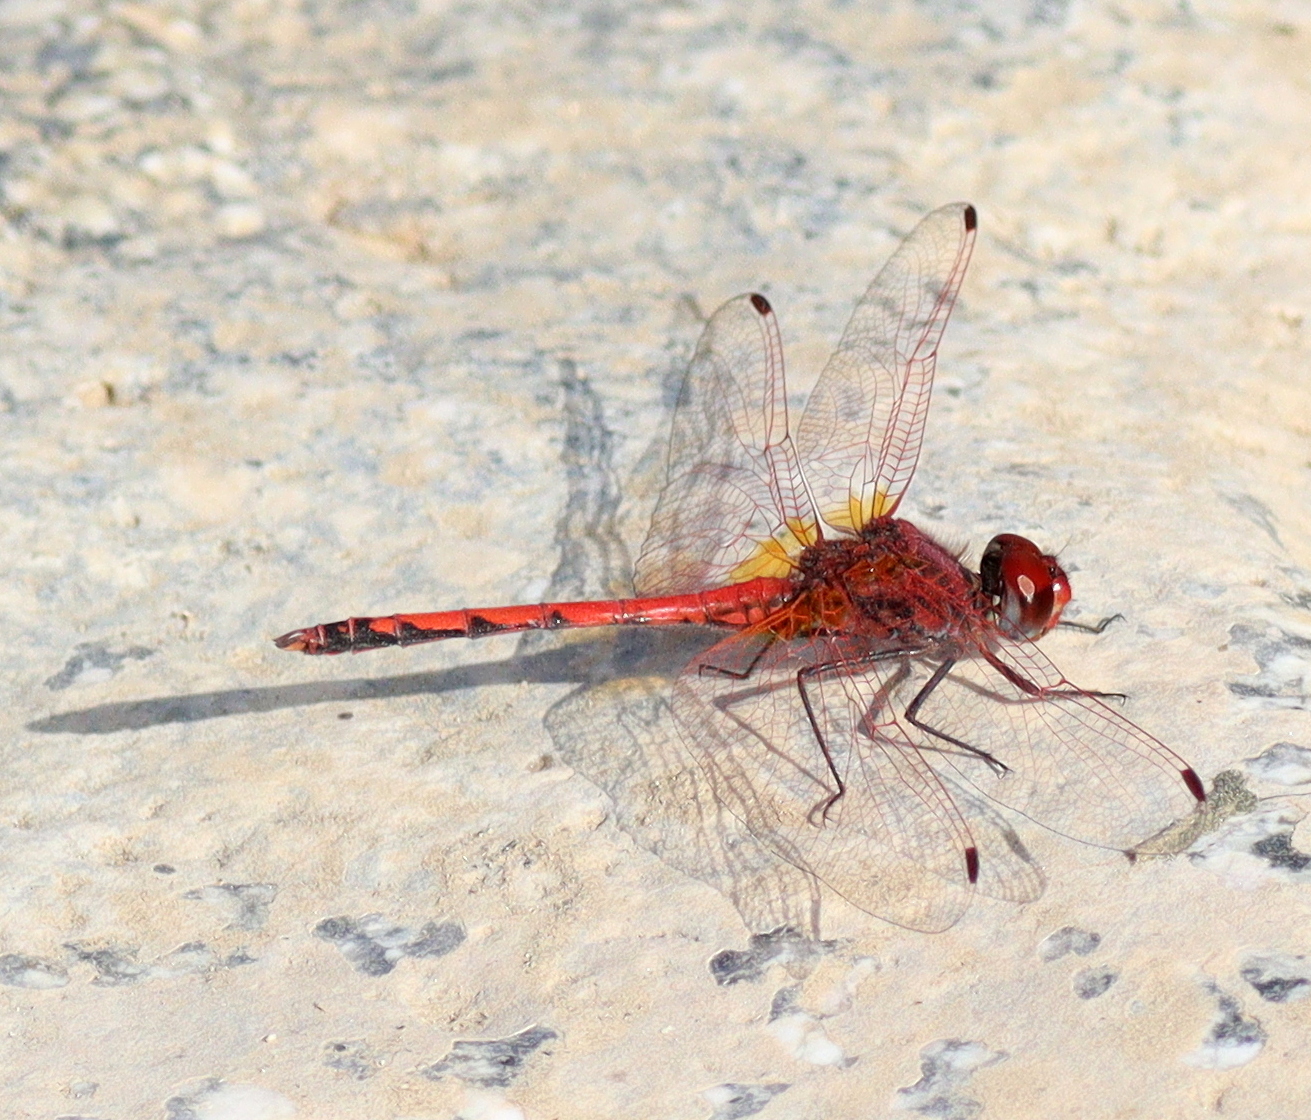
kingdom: Animalia
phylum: Arthropoda
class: Insecta
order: Odonata
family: Libellulidae
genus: Trithemis
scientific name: Trithemis arteriosa
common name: Red-veined dropwing
